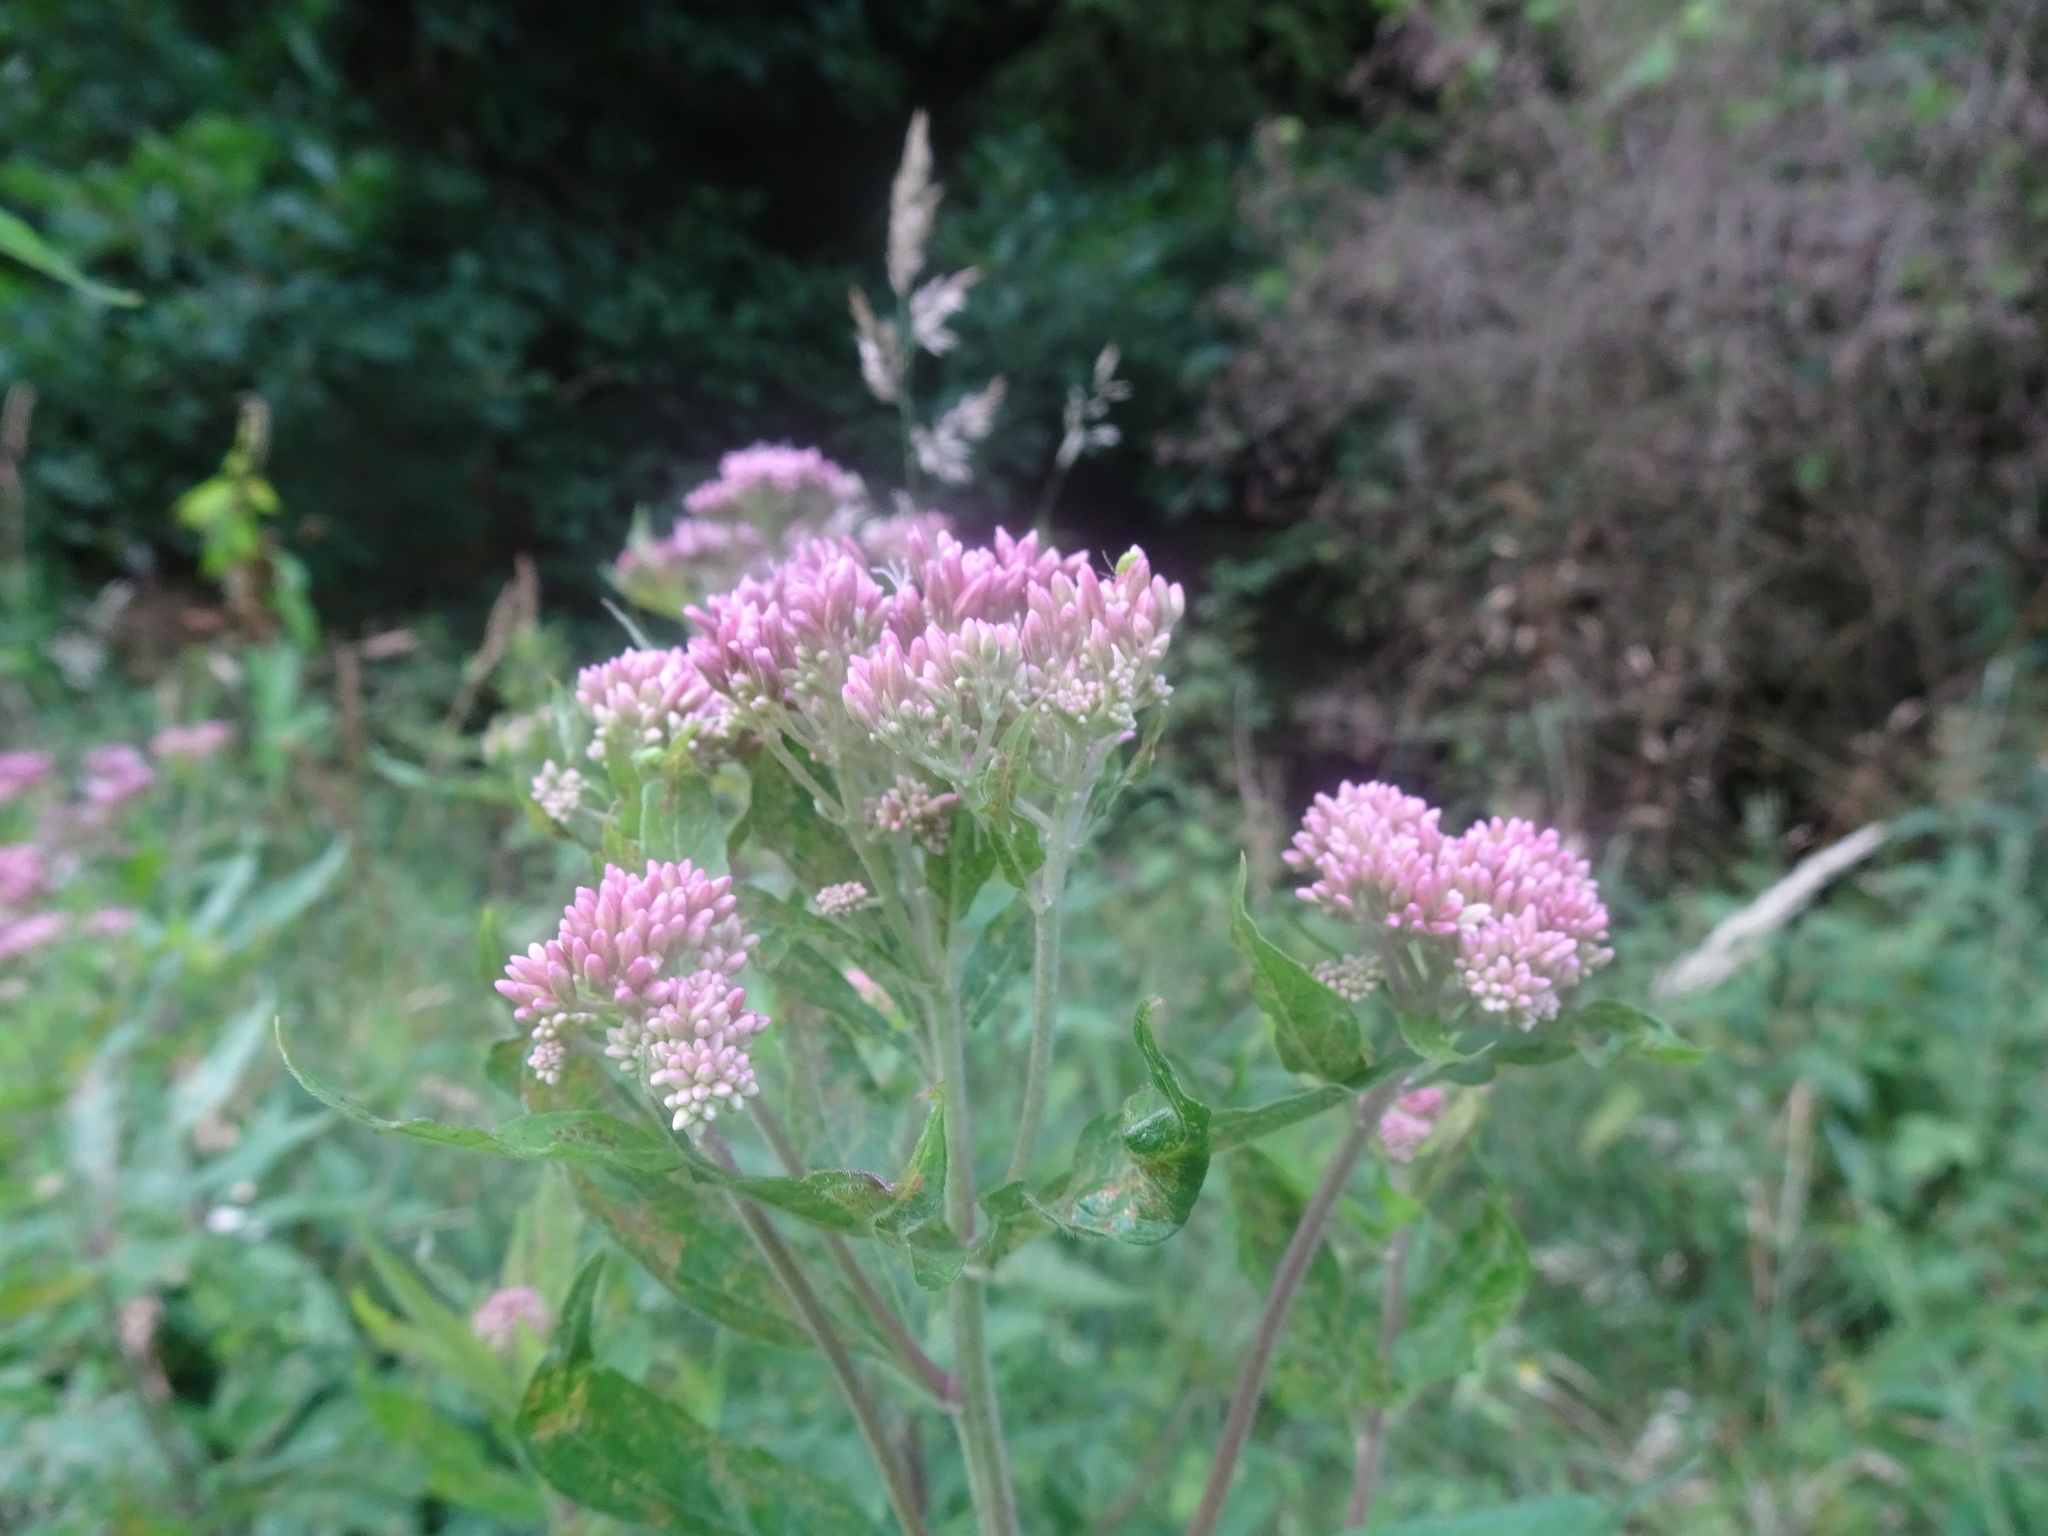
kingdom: Plantae
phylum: Tracheophyta
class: Magnoliopsida
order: Asterales
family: Asteraceae
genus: Eupatorium
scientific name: Eupatorium cannabinum
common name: Hemp-agrimony
